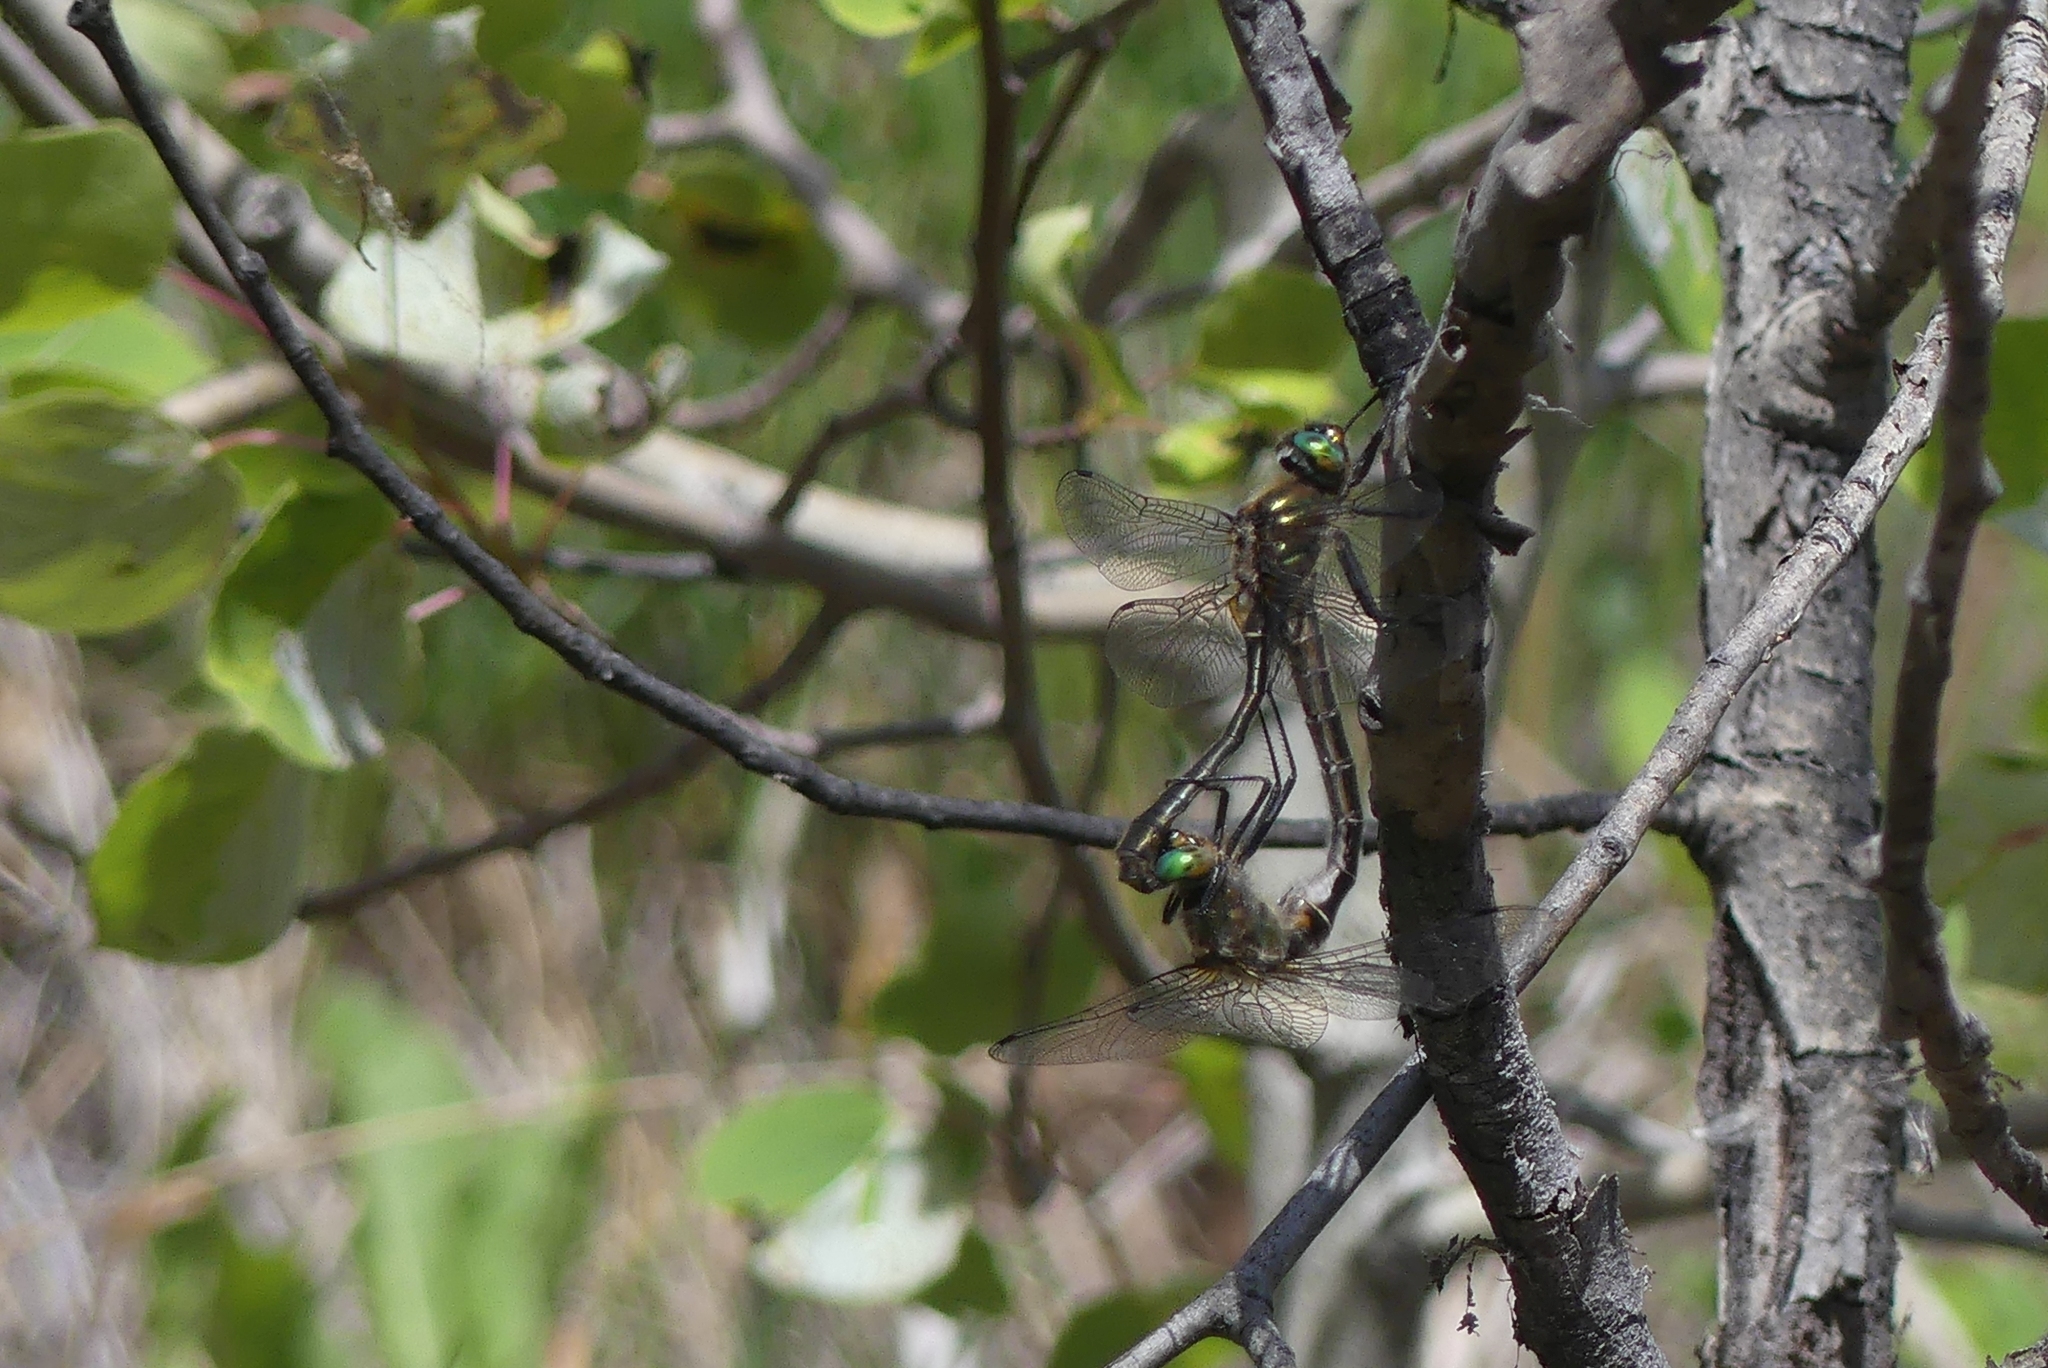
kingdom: Animalia
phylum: Arthropoda
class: Insecta
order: Odonata
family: Corduliidae
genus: Cordulia
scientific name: Cordulia shurtleffii
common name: American emerald
